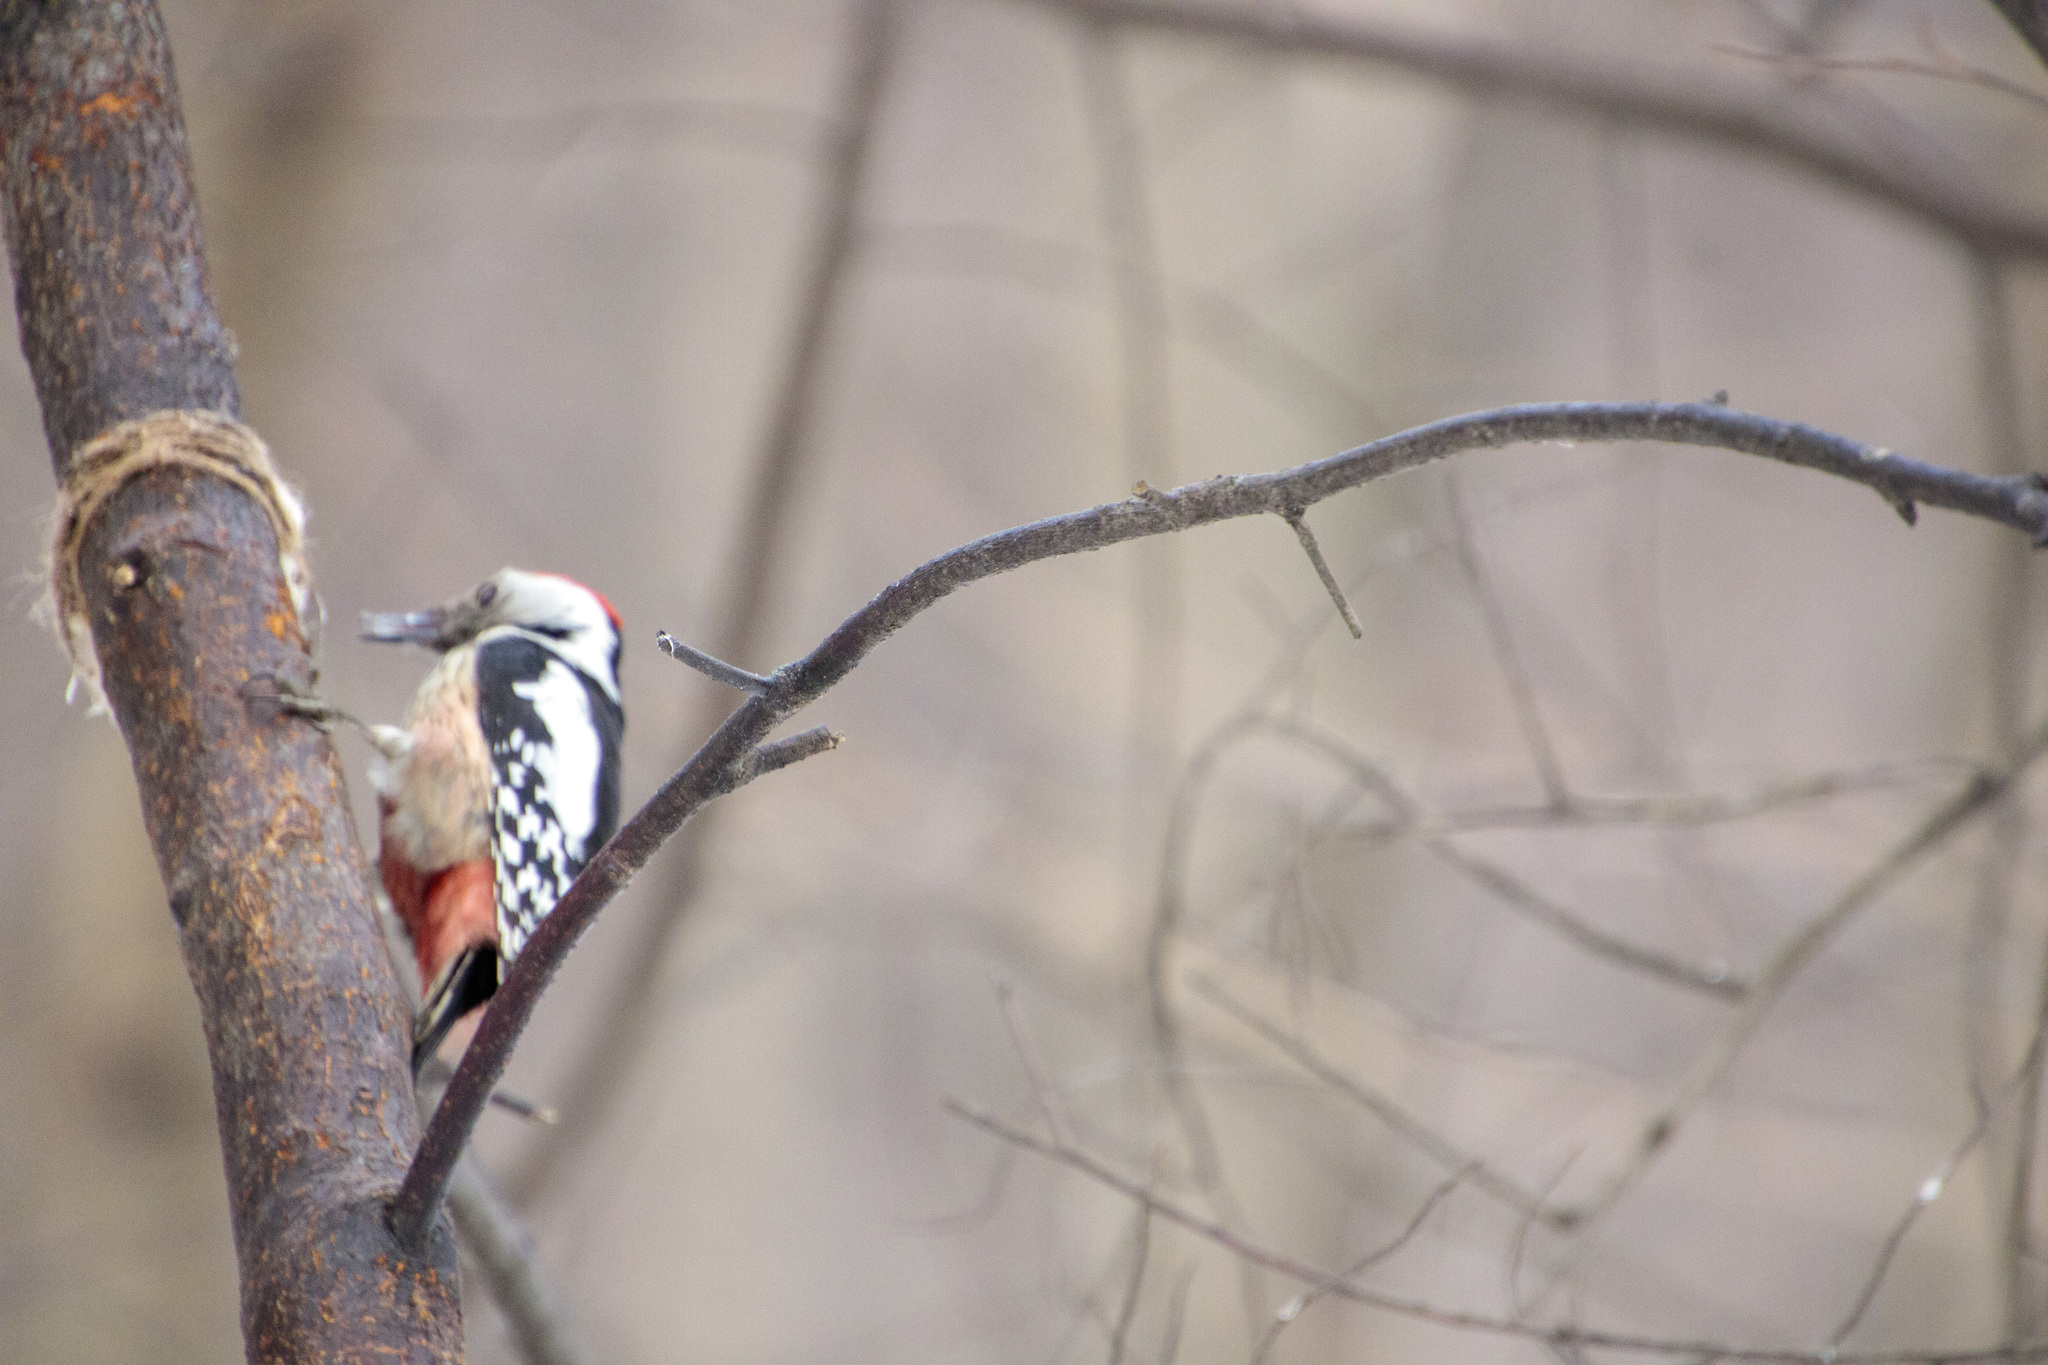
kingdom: Animalia
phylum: Chordata
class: Aves
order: Piciformes
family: Picidae
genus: Dendrocoptes
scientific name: Dendrocoptes medius
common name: Middle spotted woodpecker
